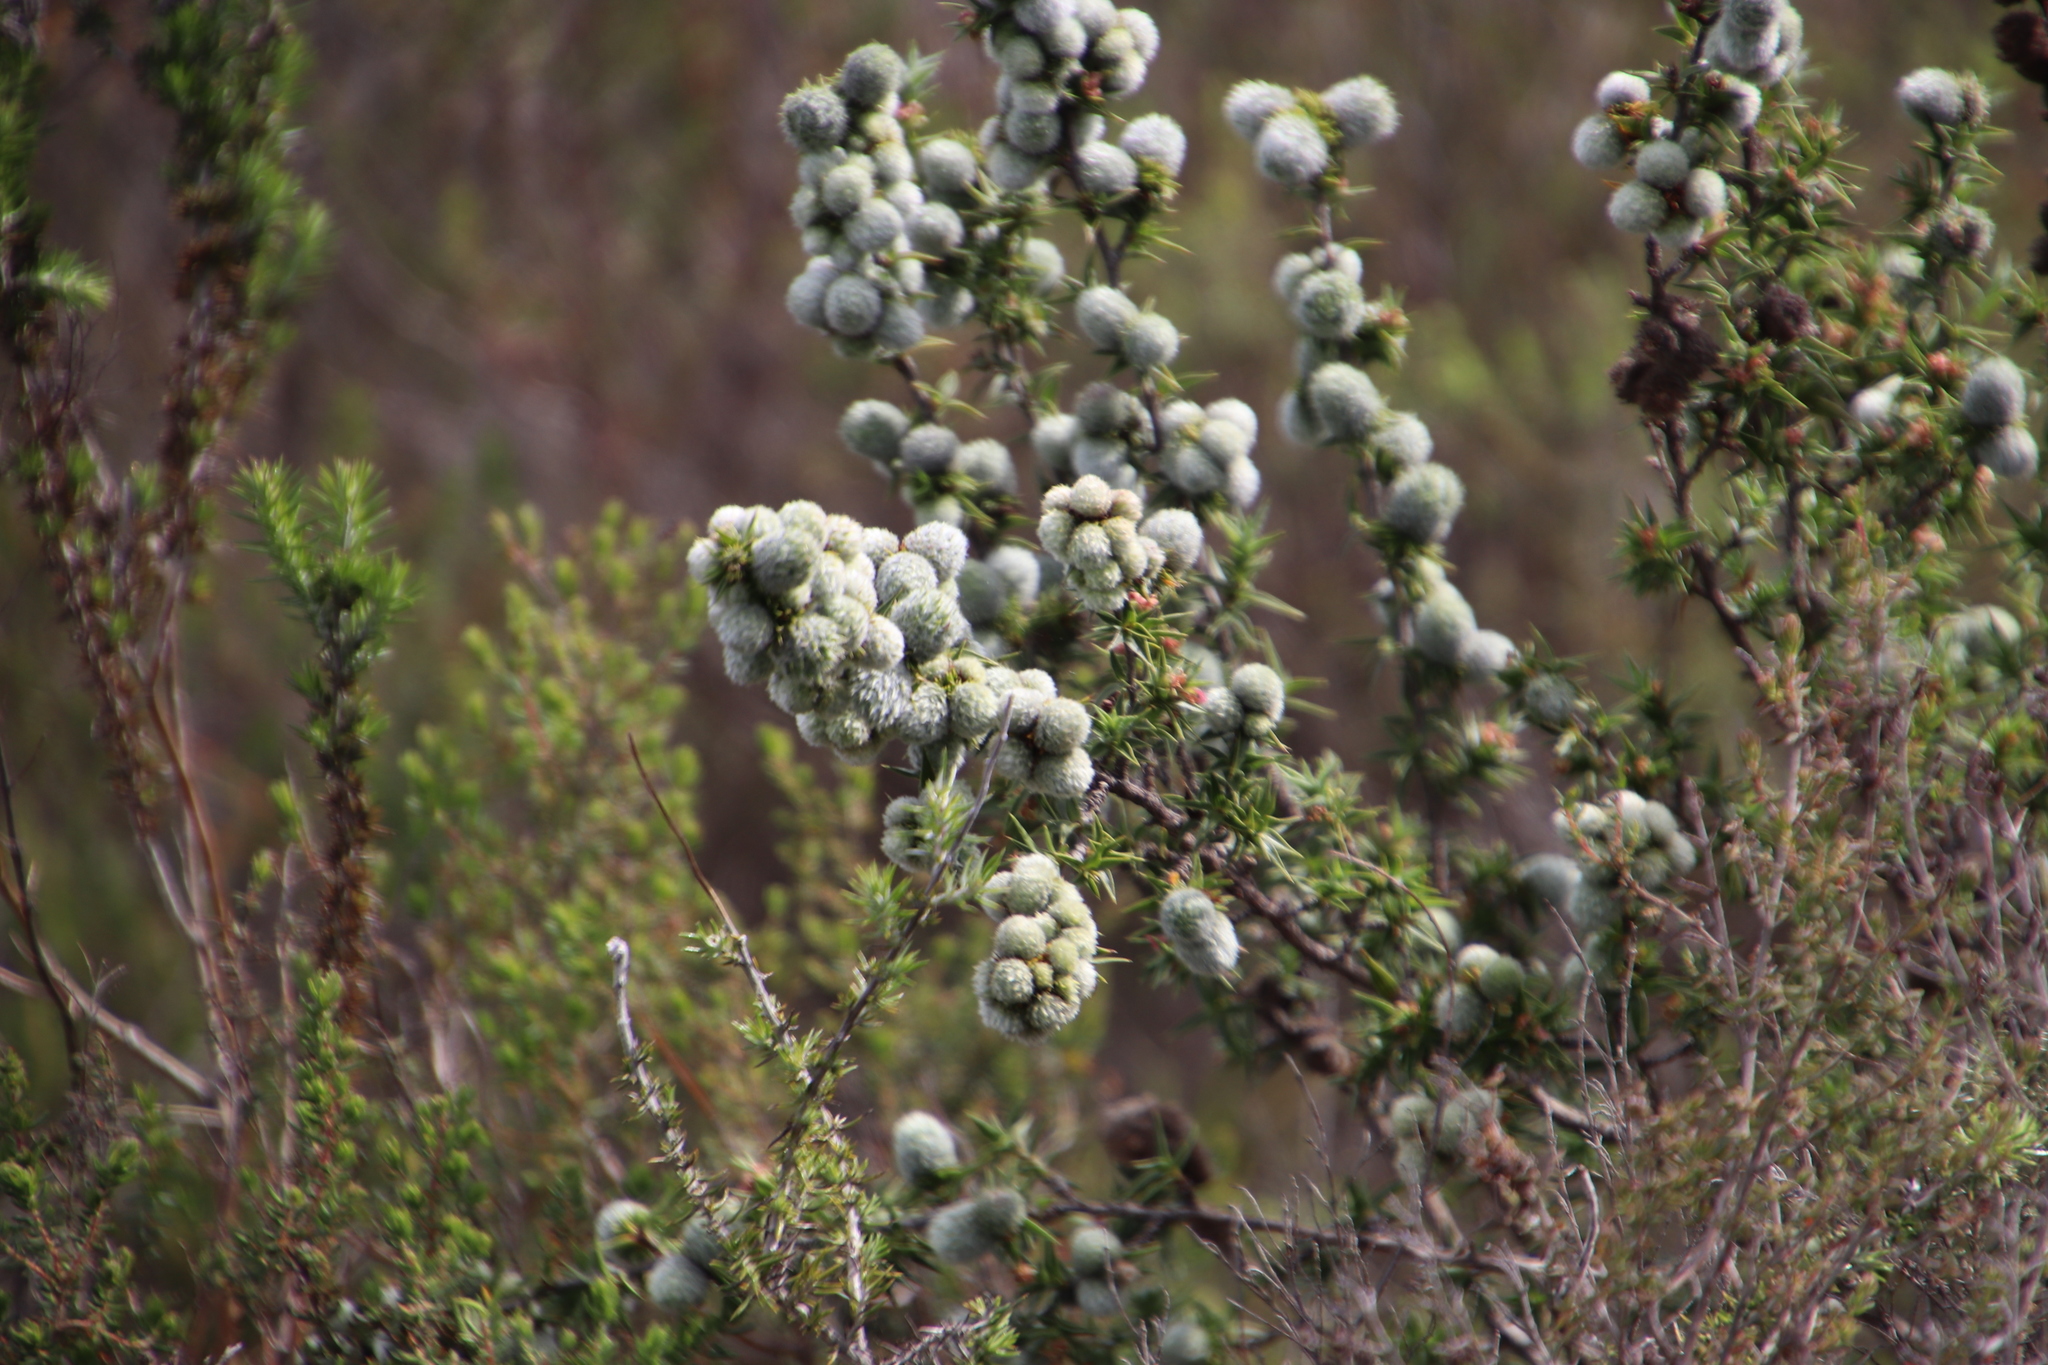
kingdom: Plantae
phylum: Tracheophyta
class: Magnoliopsida
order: Rosales
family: Rosaceae
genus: Cliffortia
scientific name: Cliffortia ruscifolia
